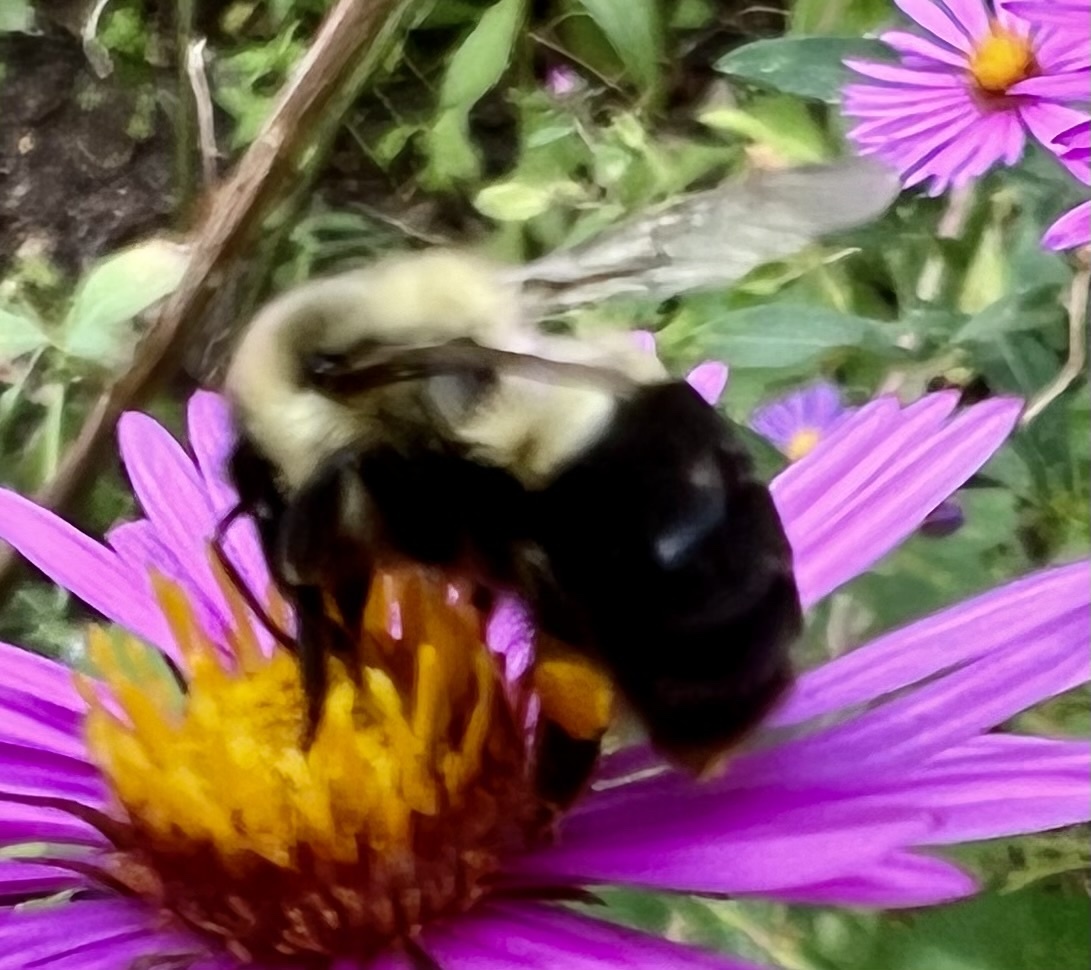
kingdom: Animalia
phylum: Arthropoda
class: Insecta
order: Hymenoptera
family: Apidae
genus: Bombus
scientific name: Bombus impatiens
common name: Common eastern bumble bee
